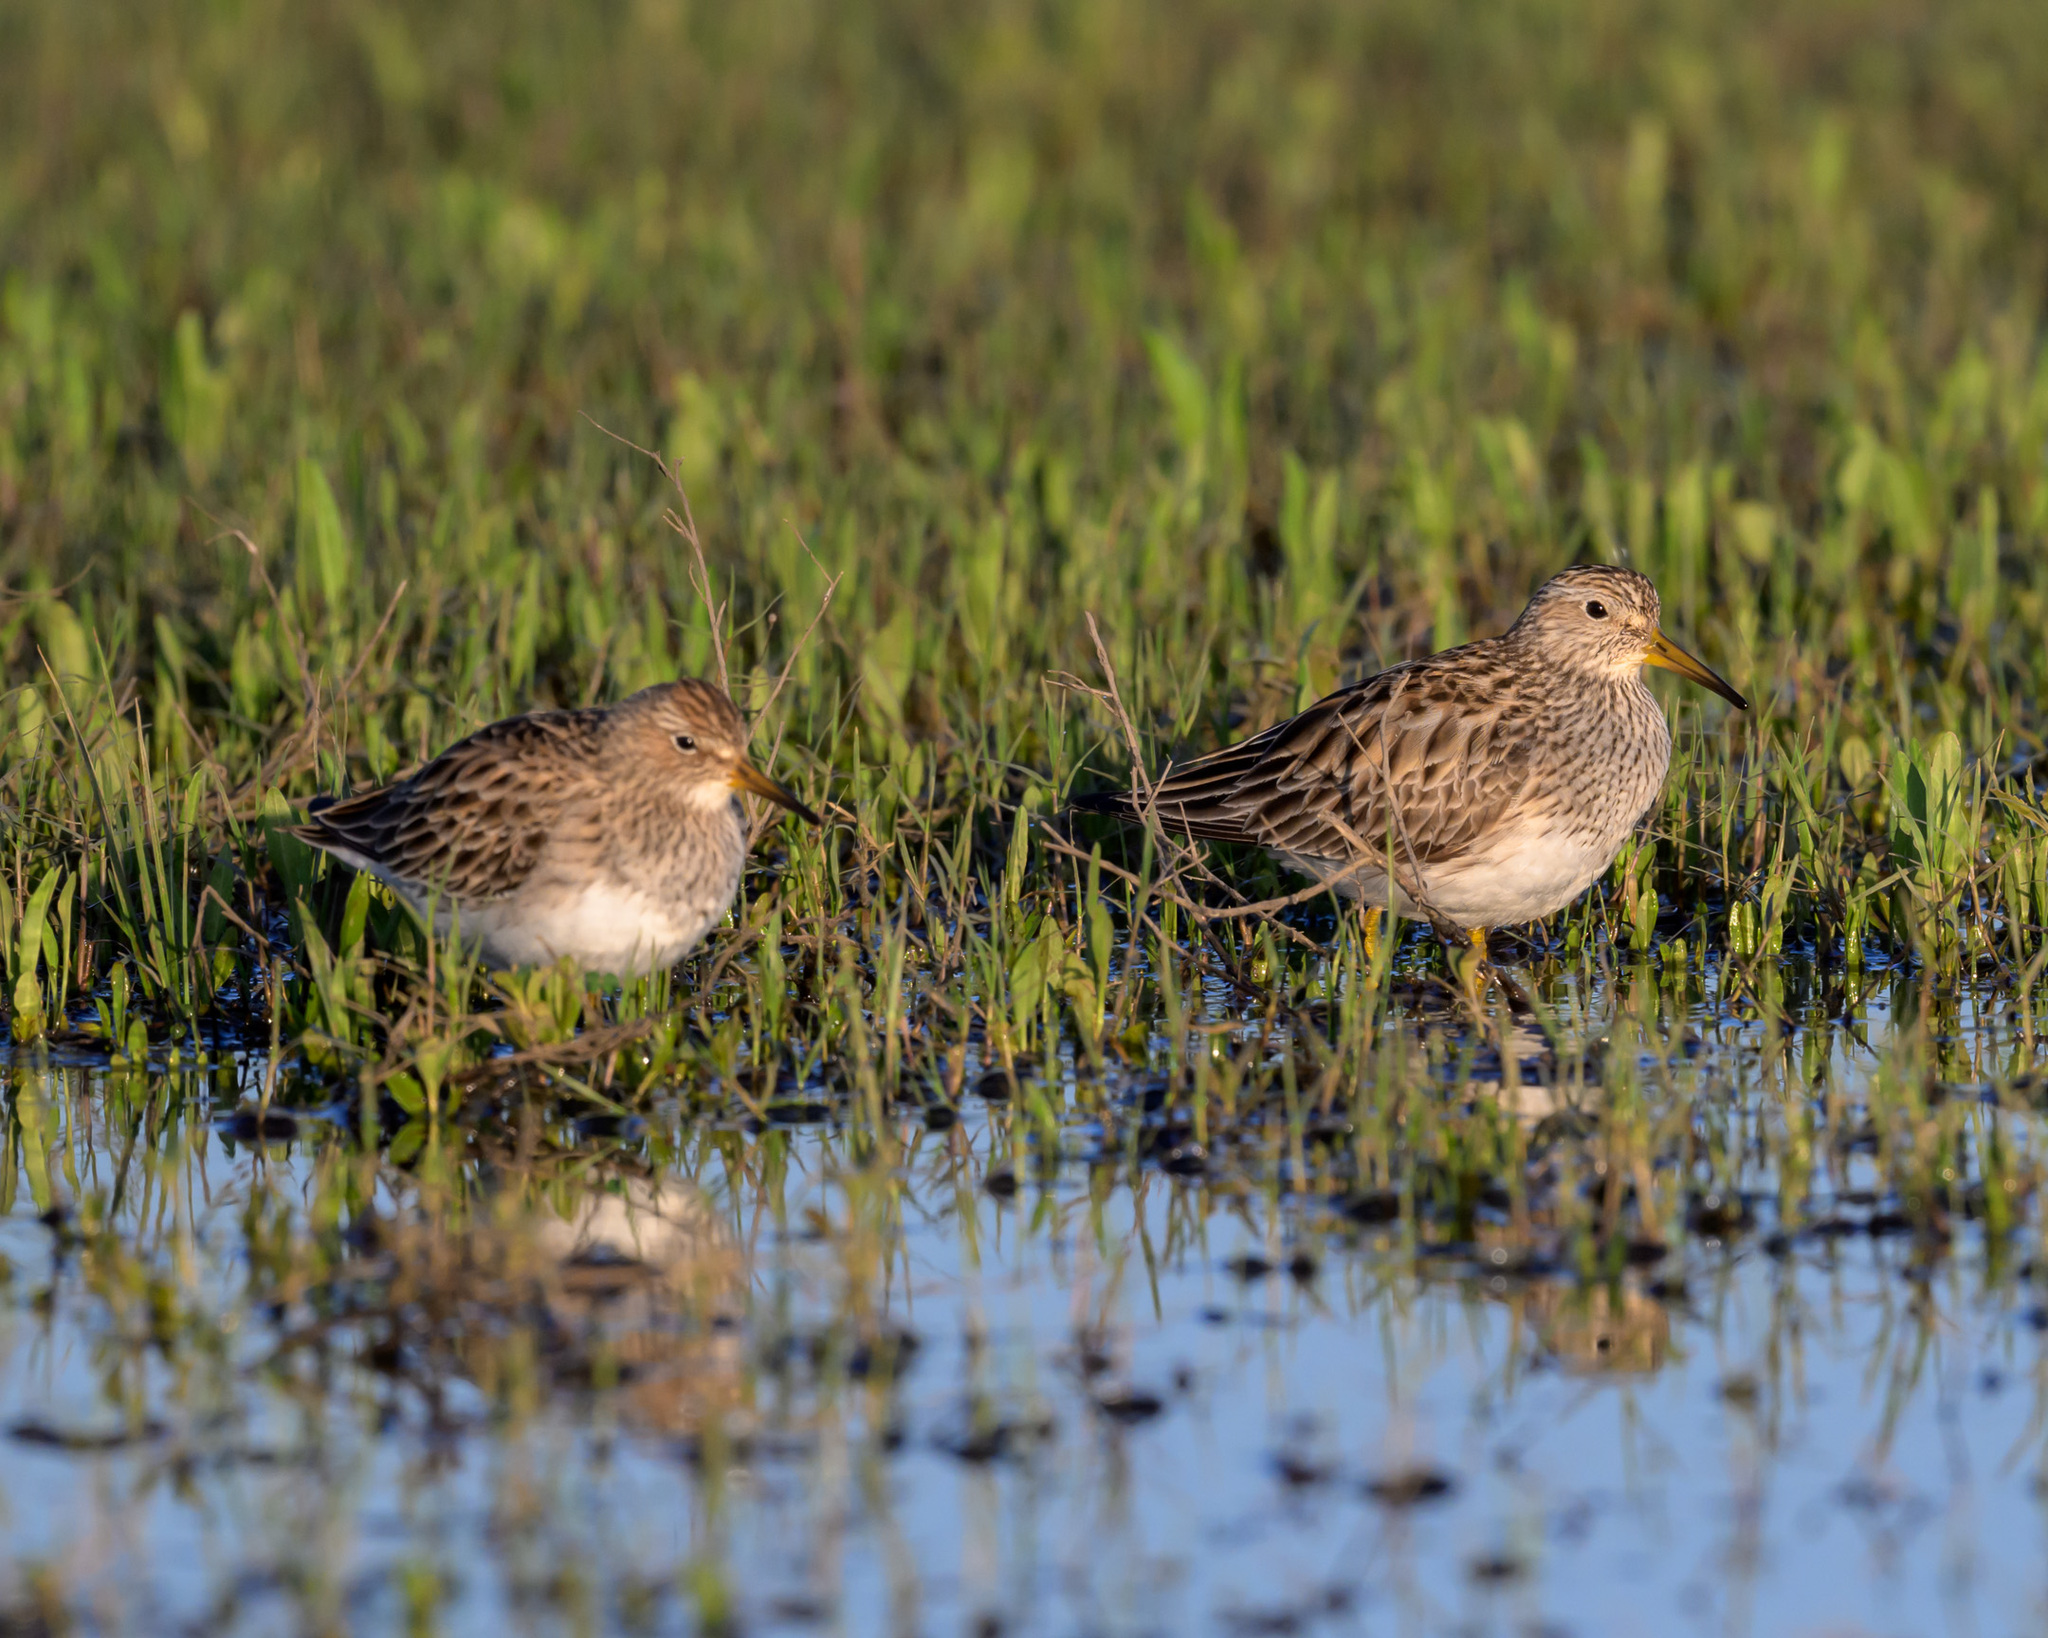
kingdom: Animalia
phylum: Chordata
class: Aves
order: Charadriiformes
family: Scolopacidae
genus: Calidris
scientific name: Calidris melanotos
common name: Pectoral sandpiper
